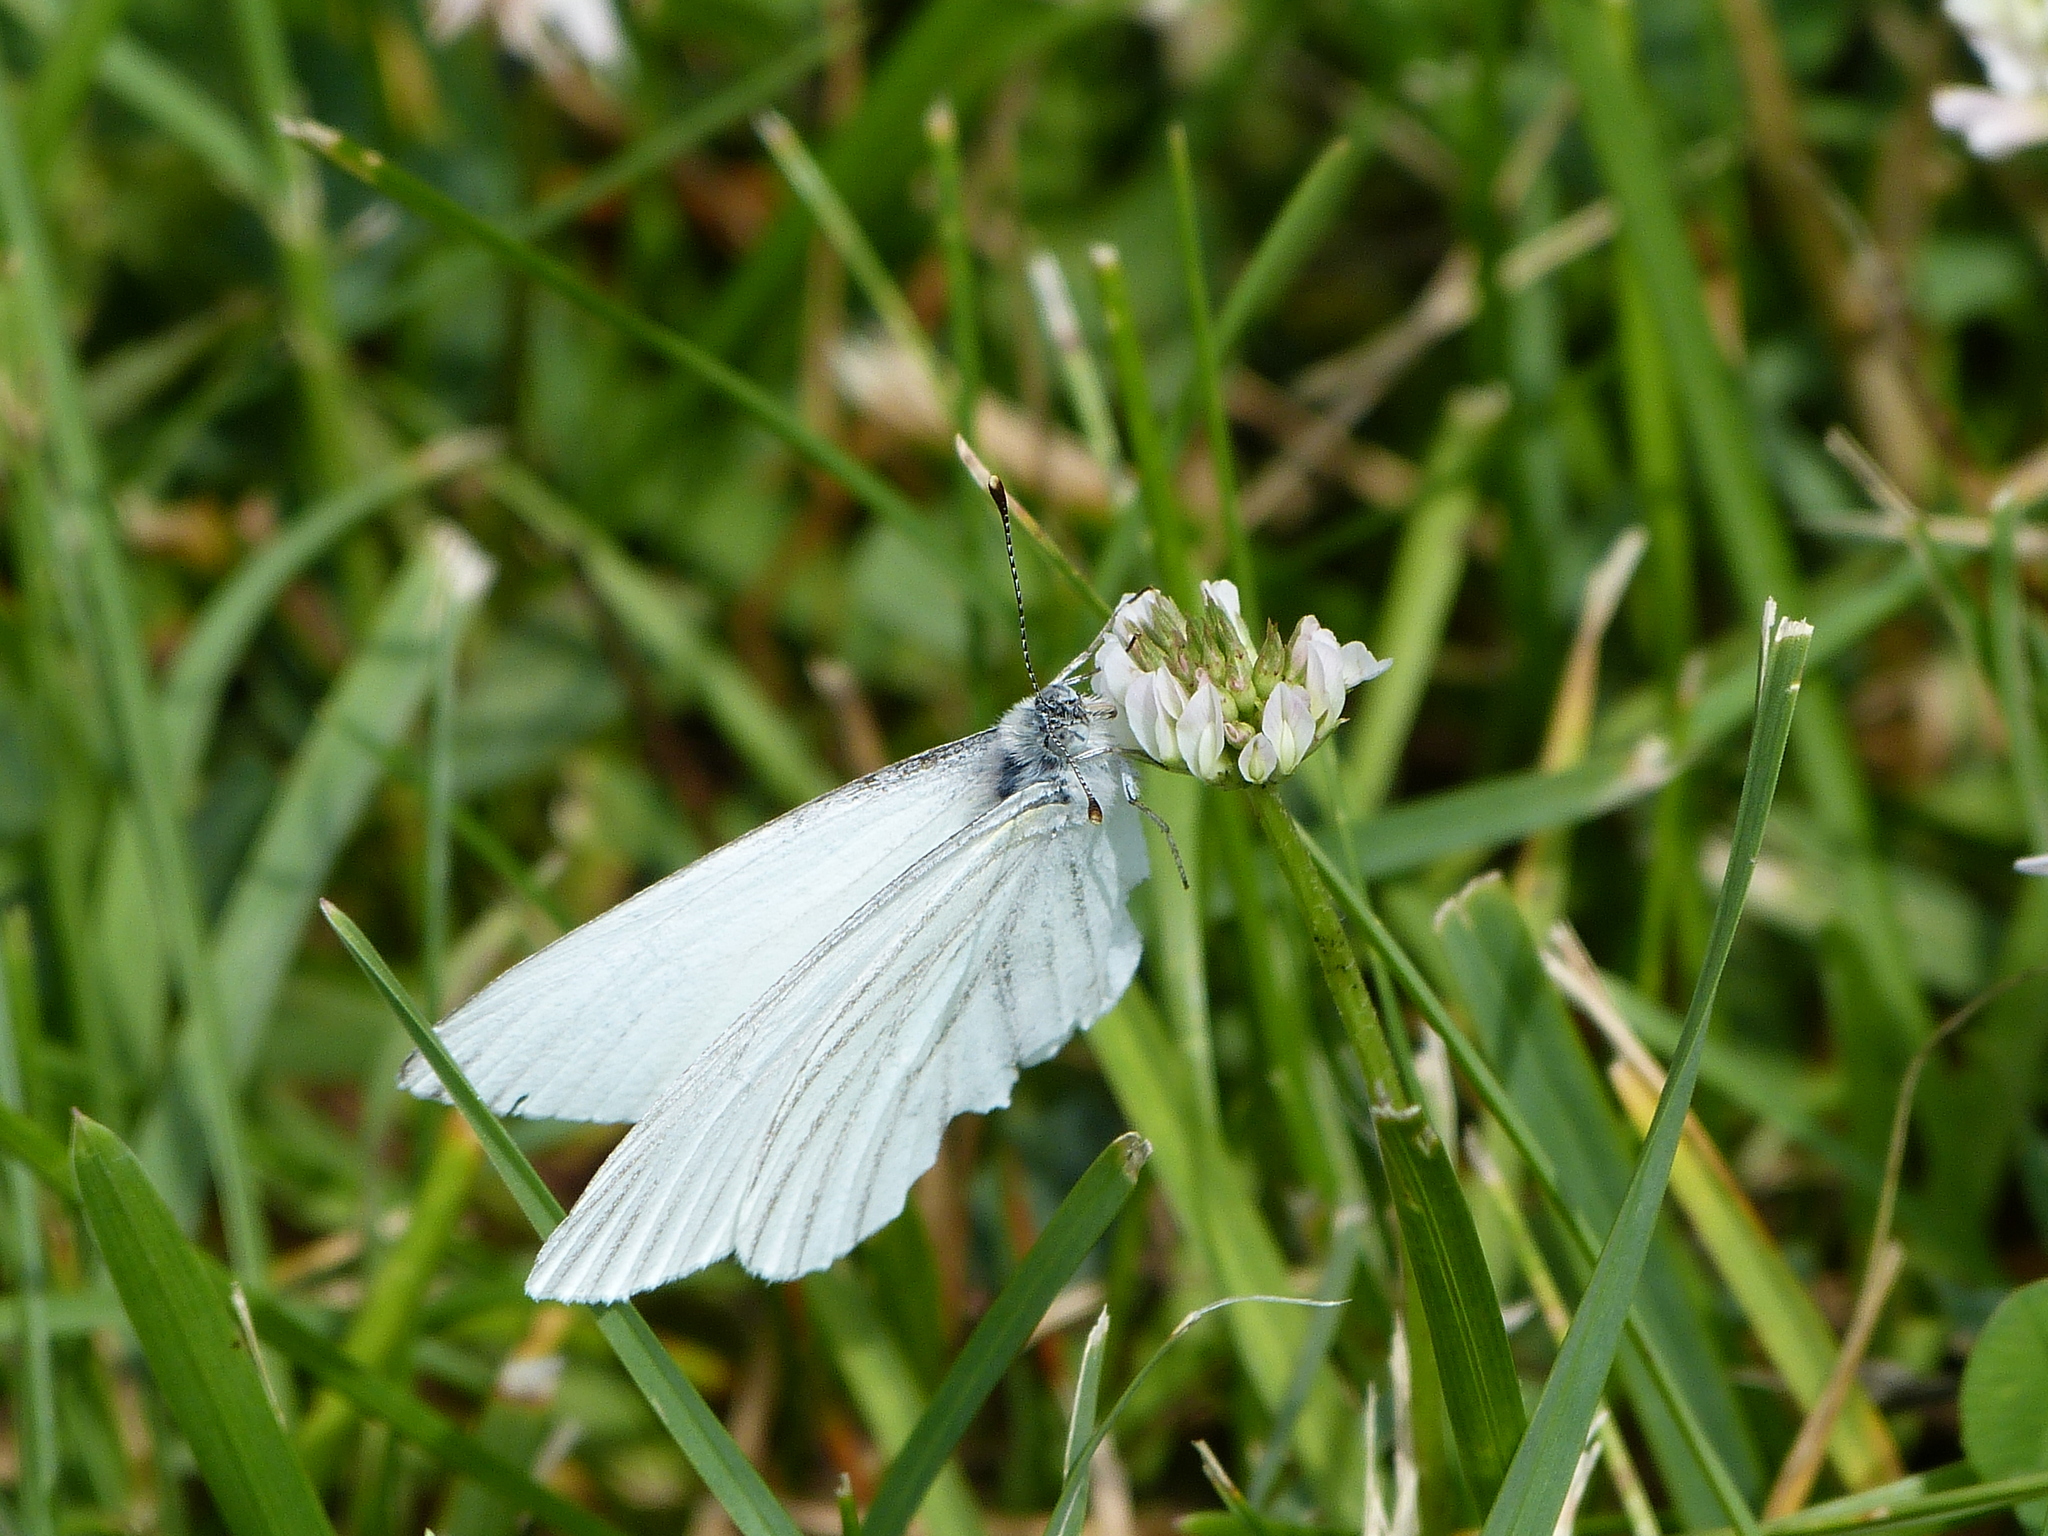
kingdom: Animalia
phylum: Arthropoda
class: Insecta
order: Lepidoptera
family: Pieridae
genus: Pieris
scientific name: Pieris oleracea
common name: Mustard white
